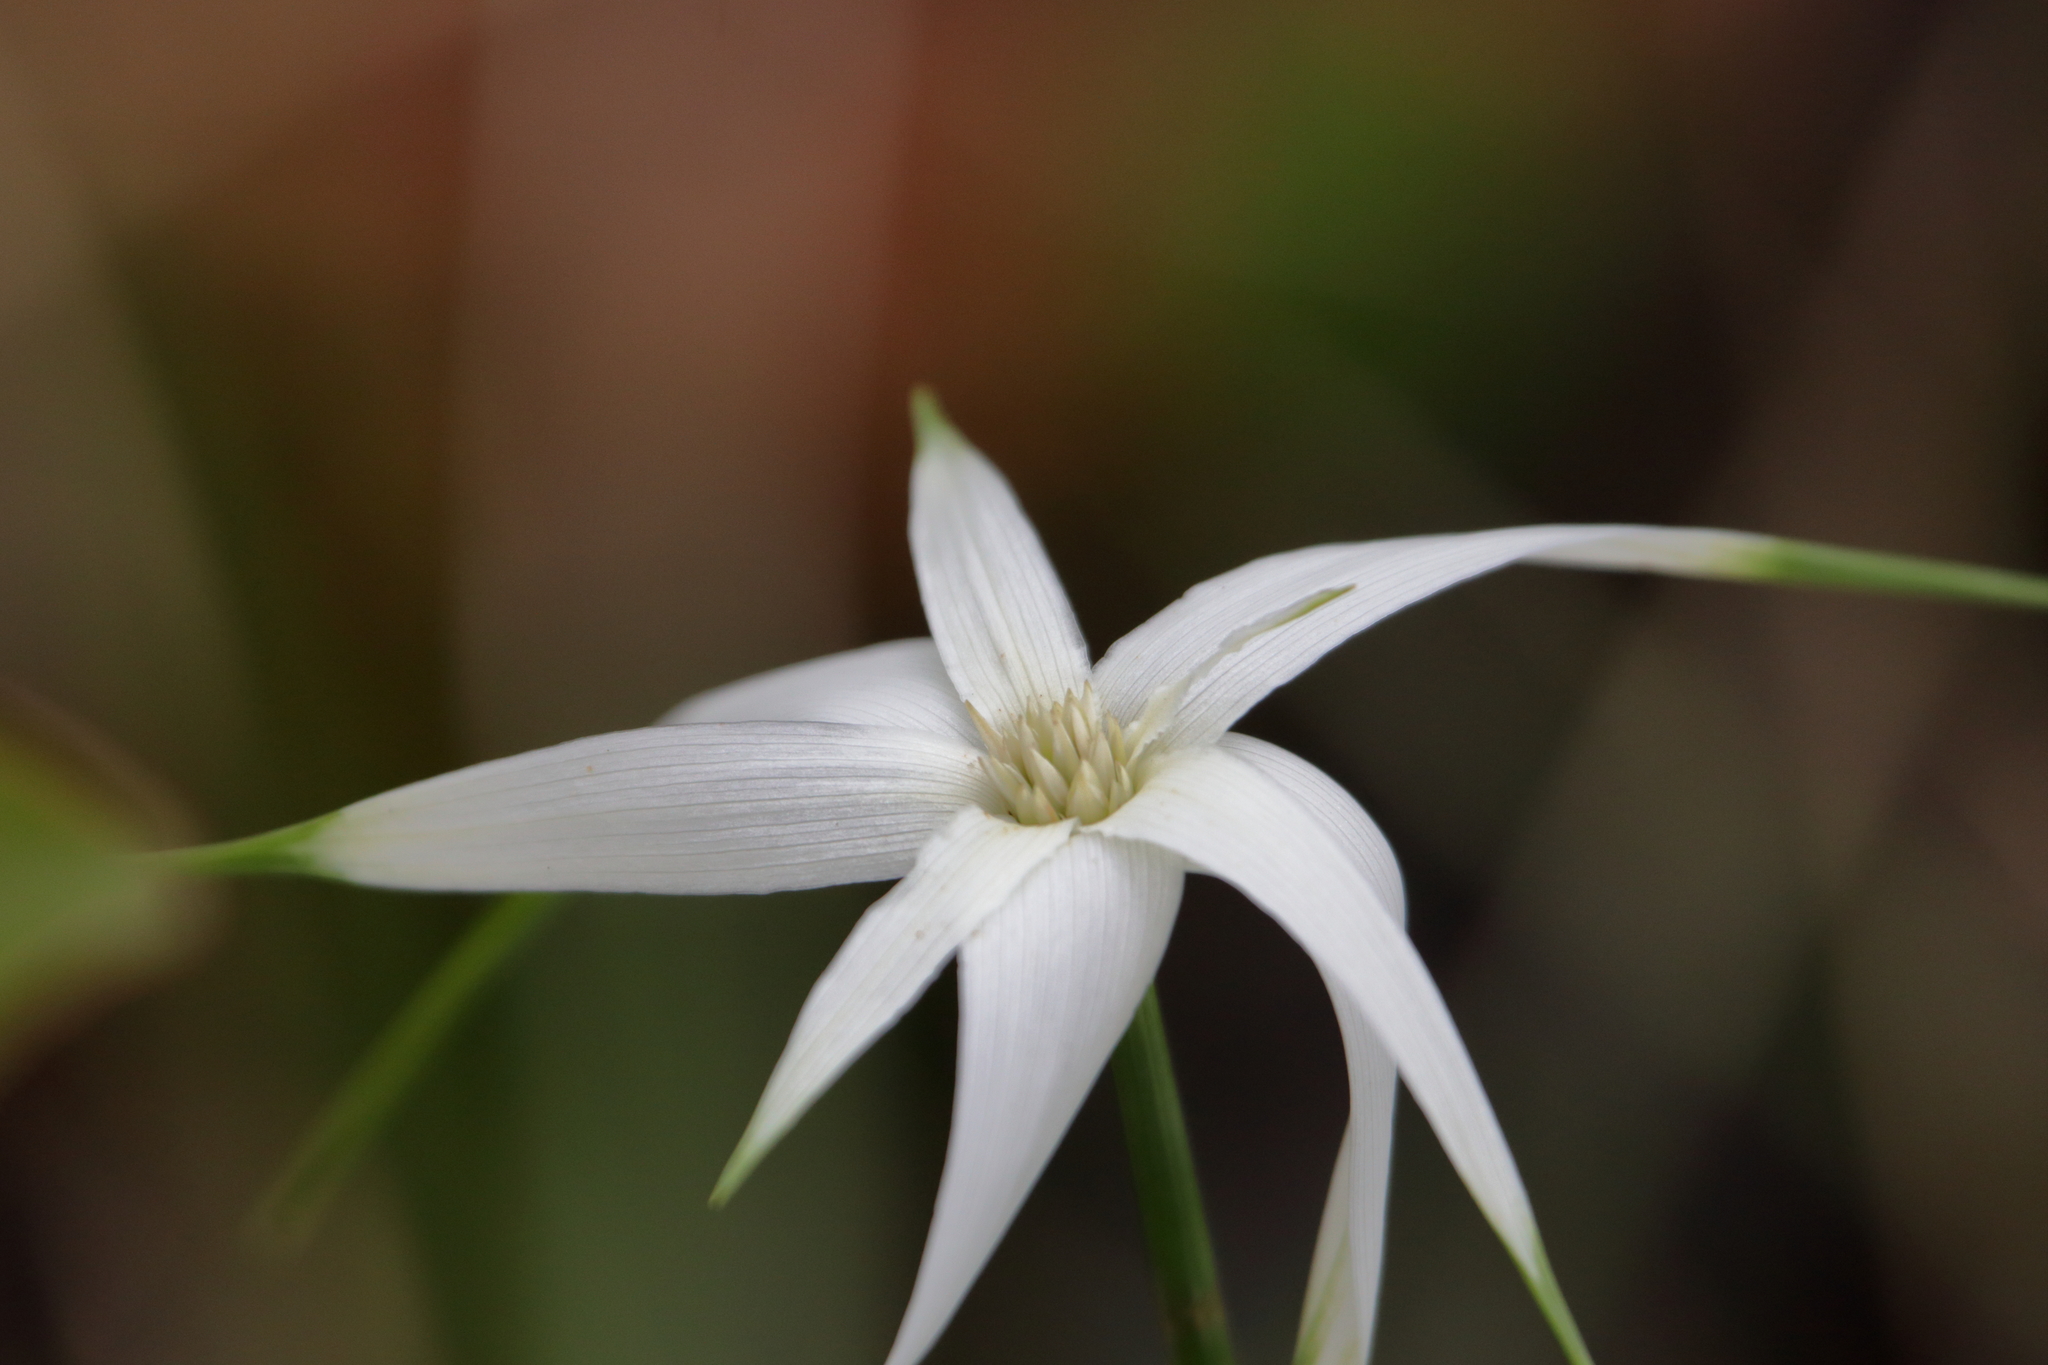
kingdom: Plantae
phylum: Tracheophyta
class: Liliopsida
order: Poales
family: Cyperaceae
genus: Rhynchospora
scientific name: Rhynchospora latifolia
